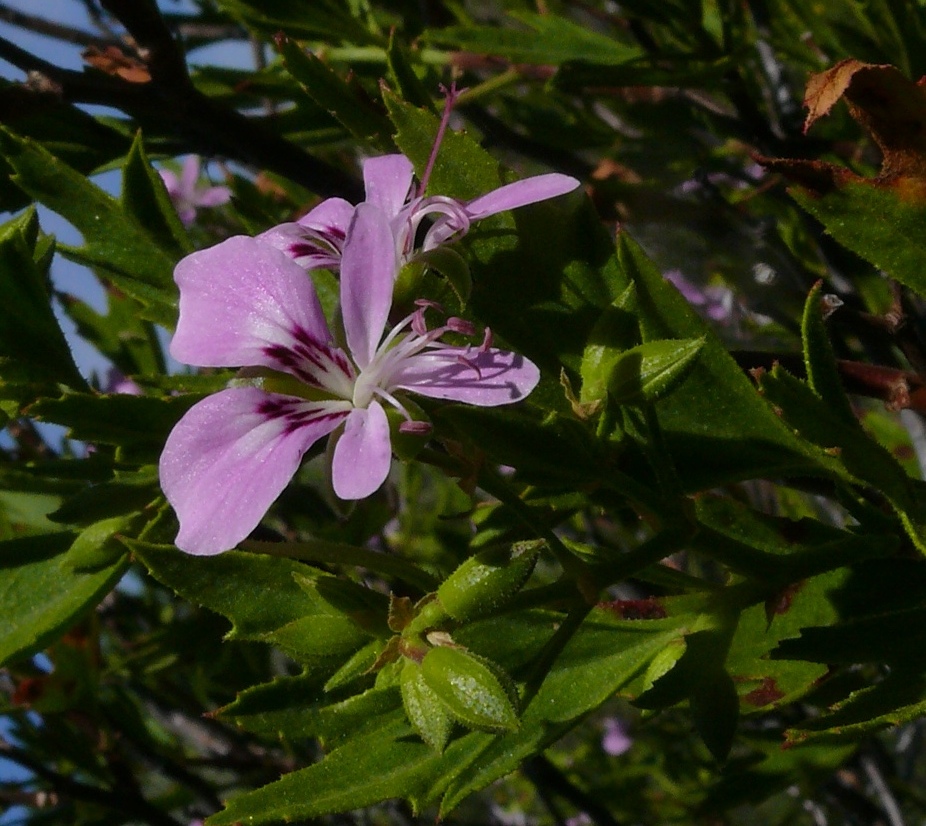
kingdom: Plantae
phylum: Tracheophyta
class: Magnoliopsida
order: Geraniales
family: Geraniaceae
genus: Pelargonium
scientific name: Pelargonium scabrum
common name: Apricot geranium
